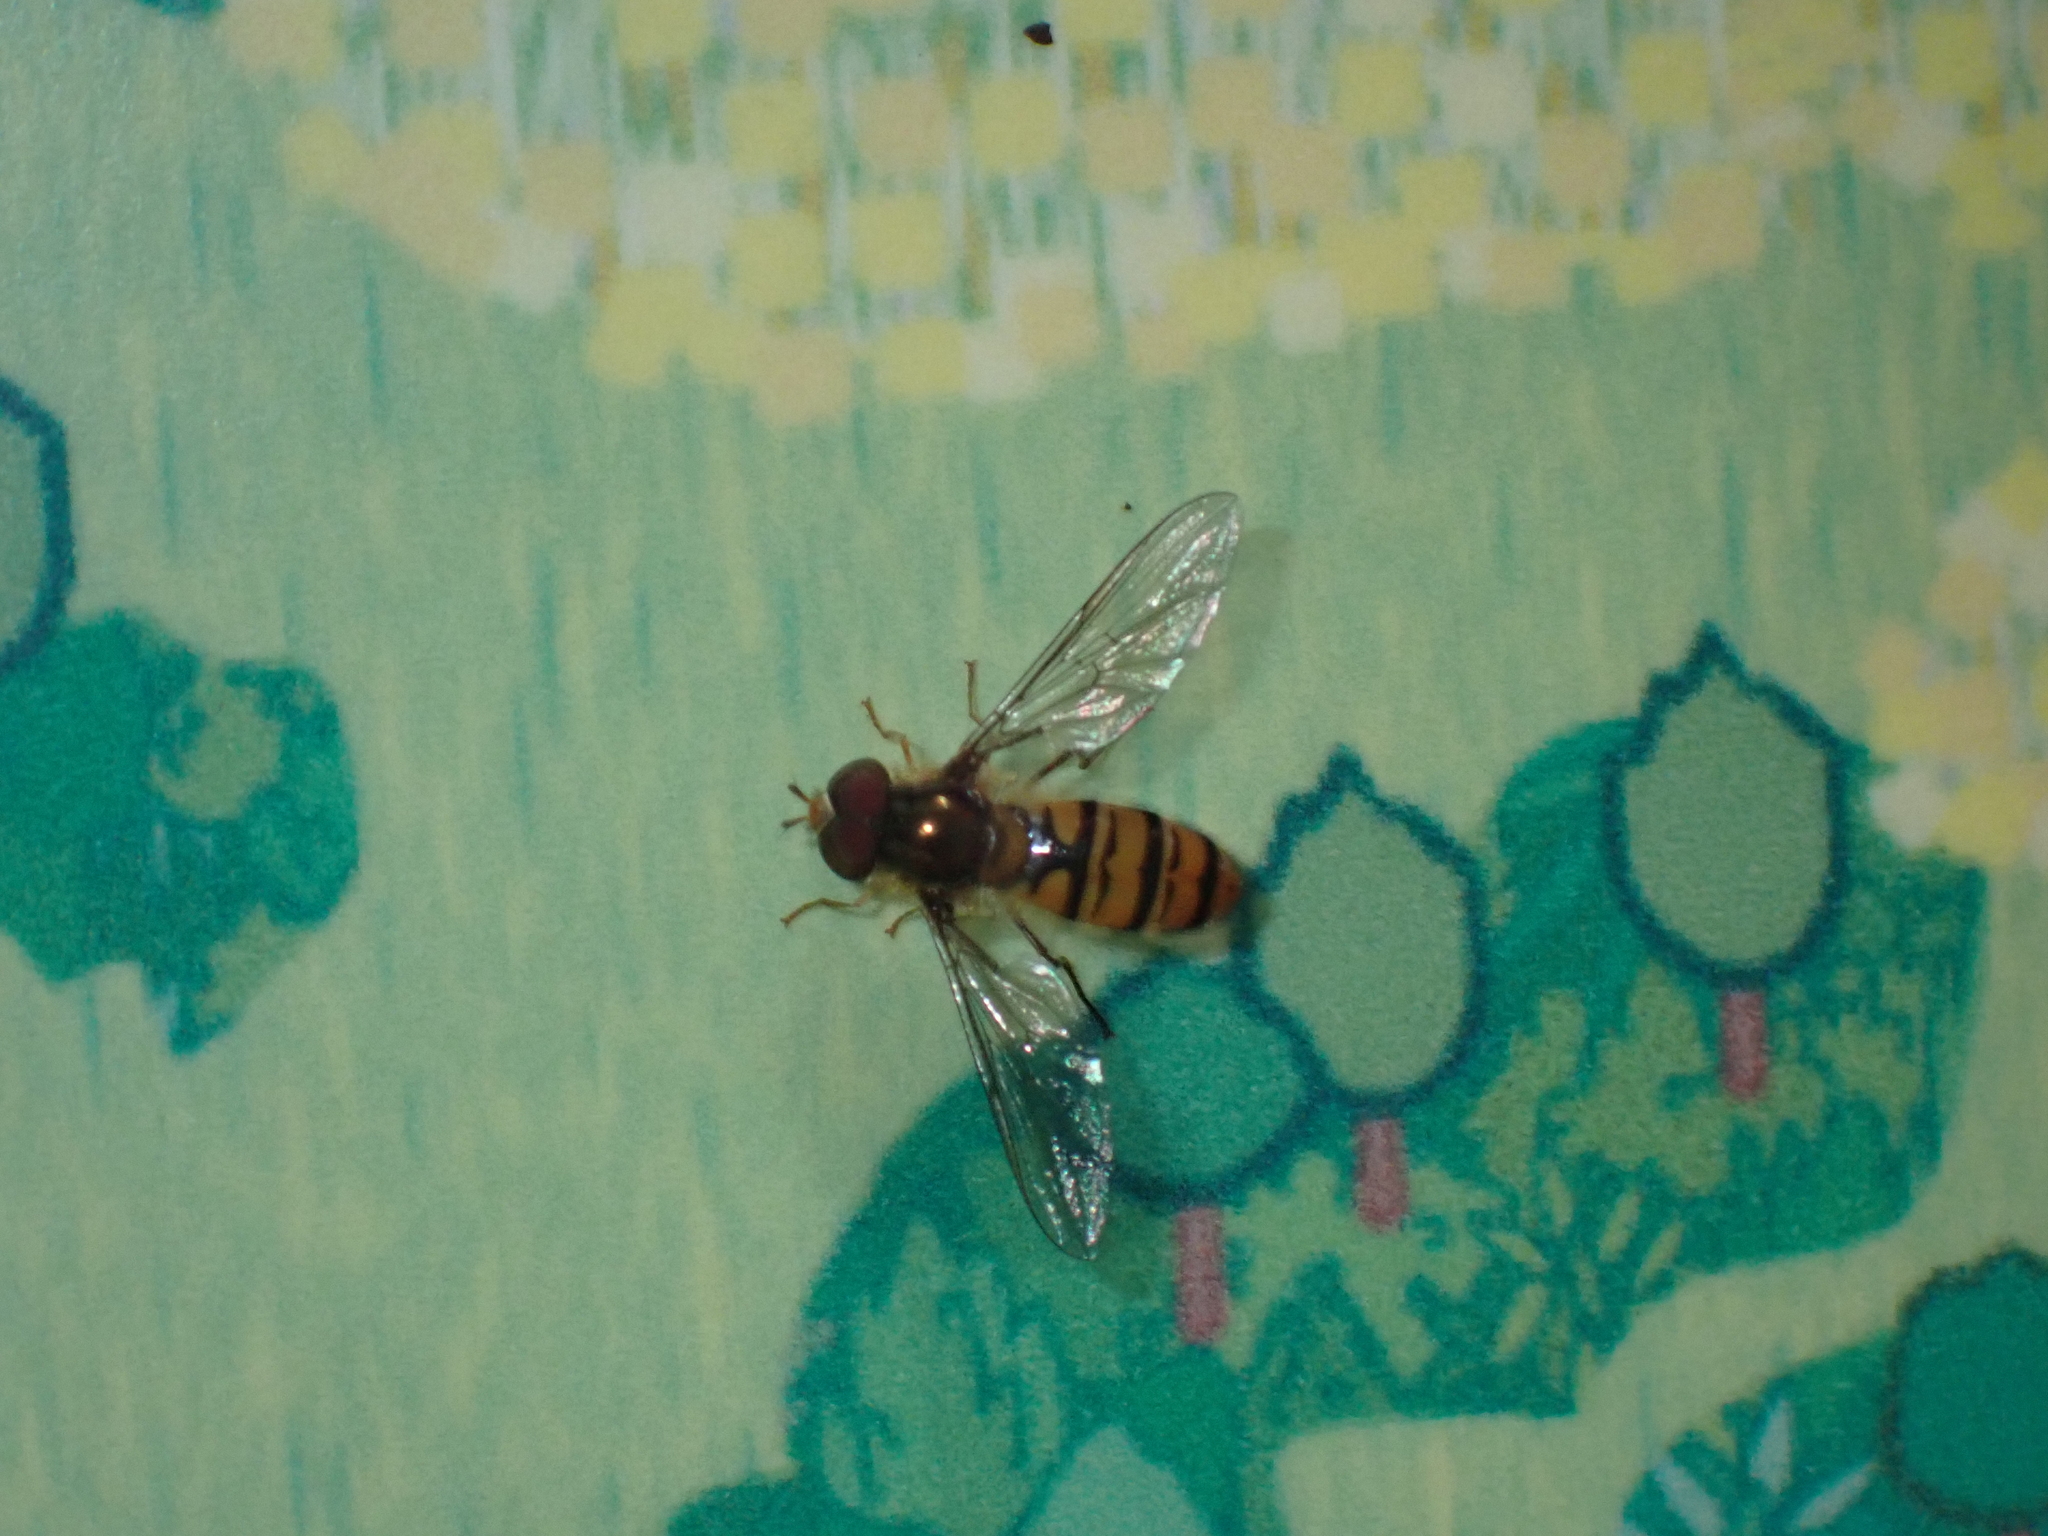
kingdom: Animalia
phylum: Arthropoda
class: Insecta
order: Diptera
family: Syrphidae
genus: Episyrphus
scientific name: Episyrphus balteatus
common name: Marmalade hoverfly
